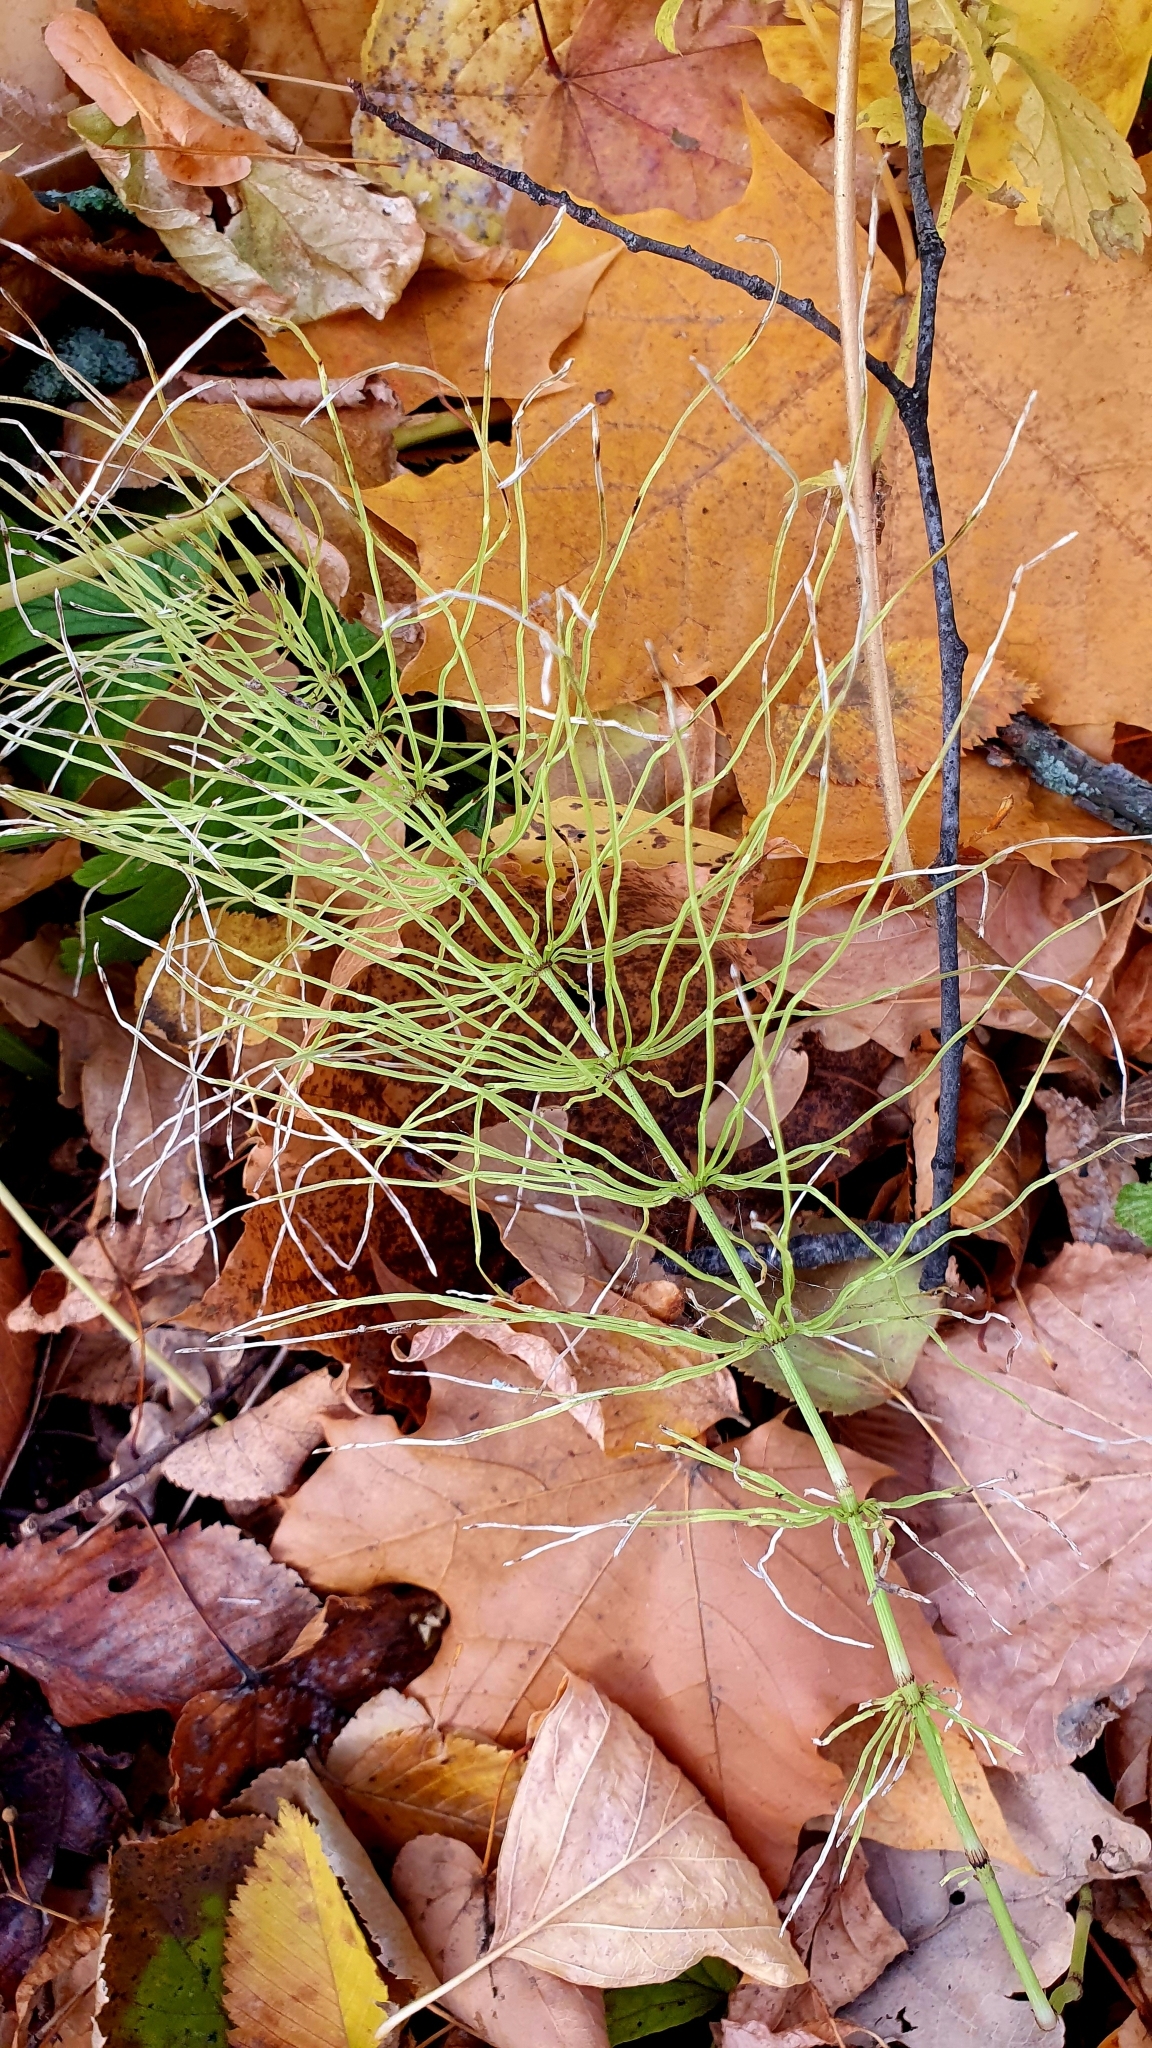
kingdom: Plantae
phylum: Tracheophyta
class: Polypodiopsida
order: Equisetales
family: Equisetaceae
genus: Equisetum
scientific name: Equisetum pratense
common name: Meadow horsetail
